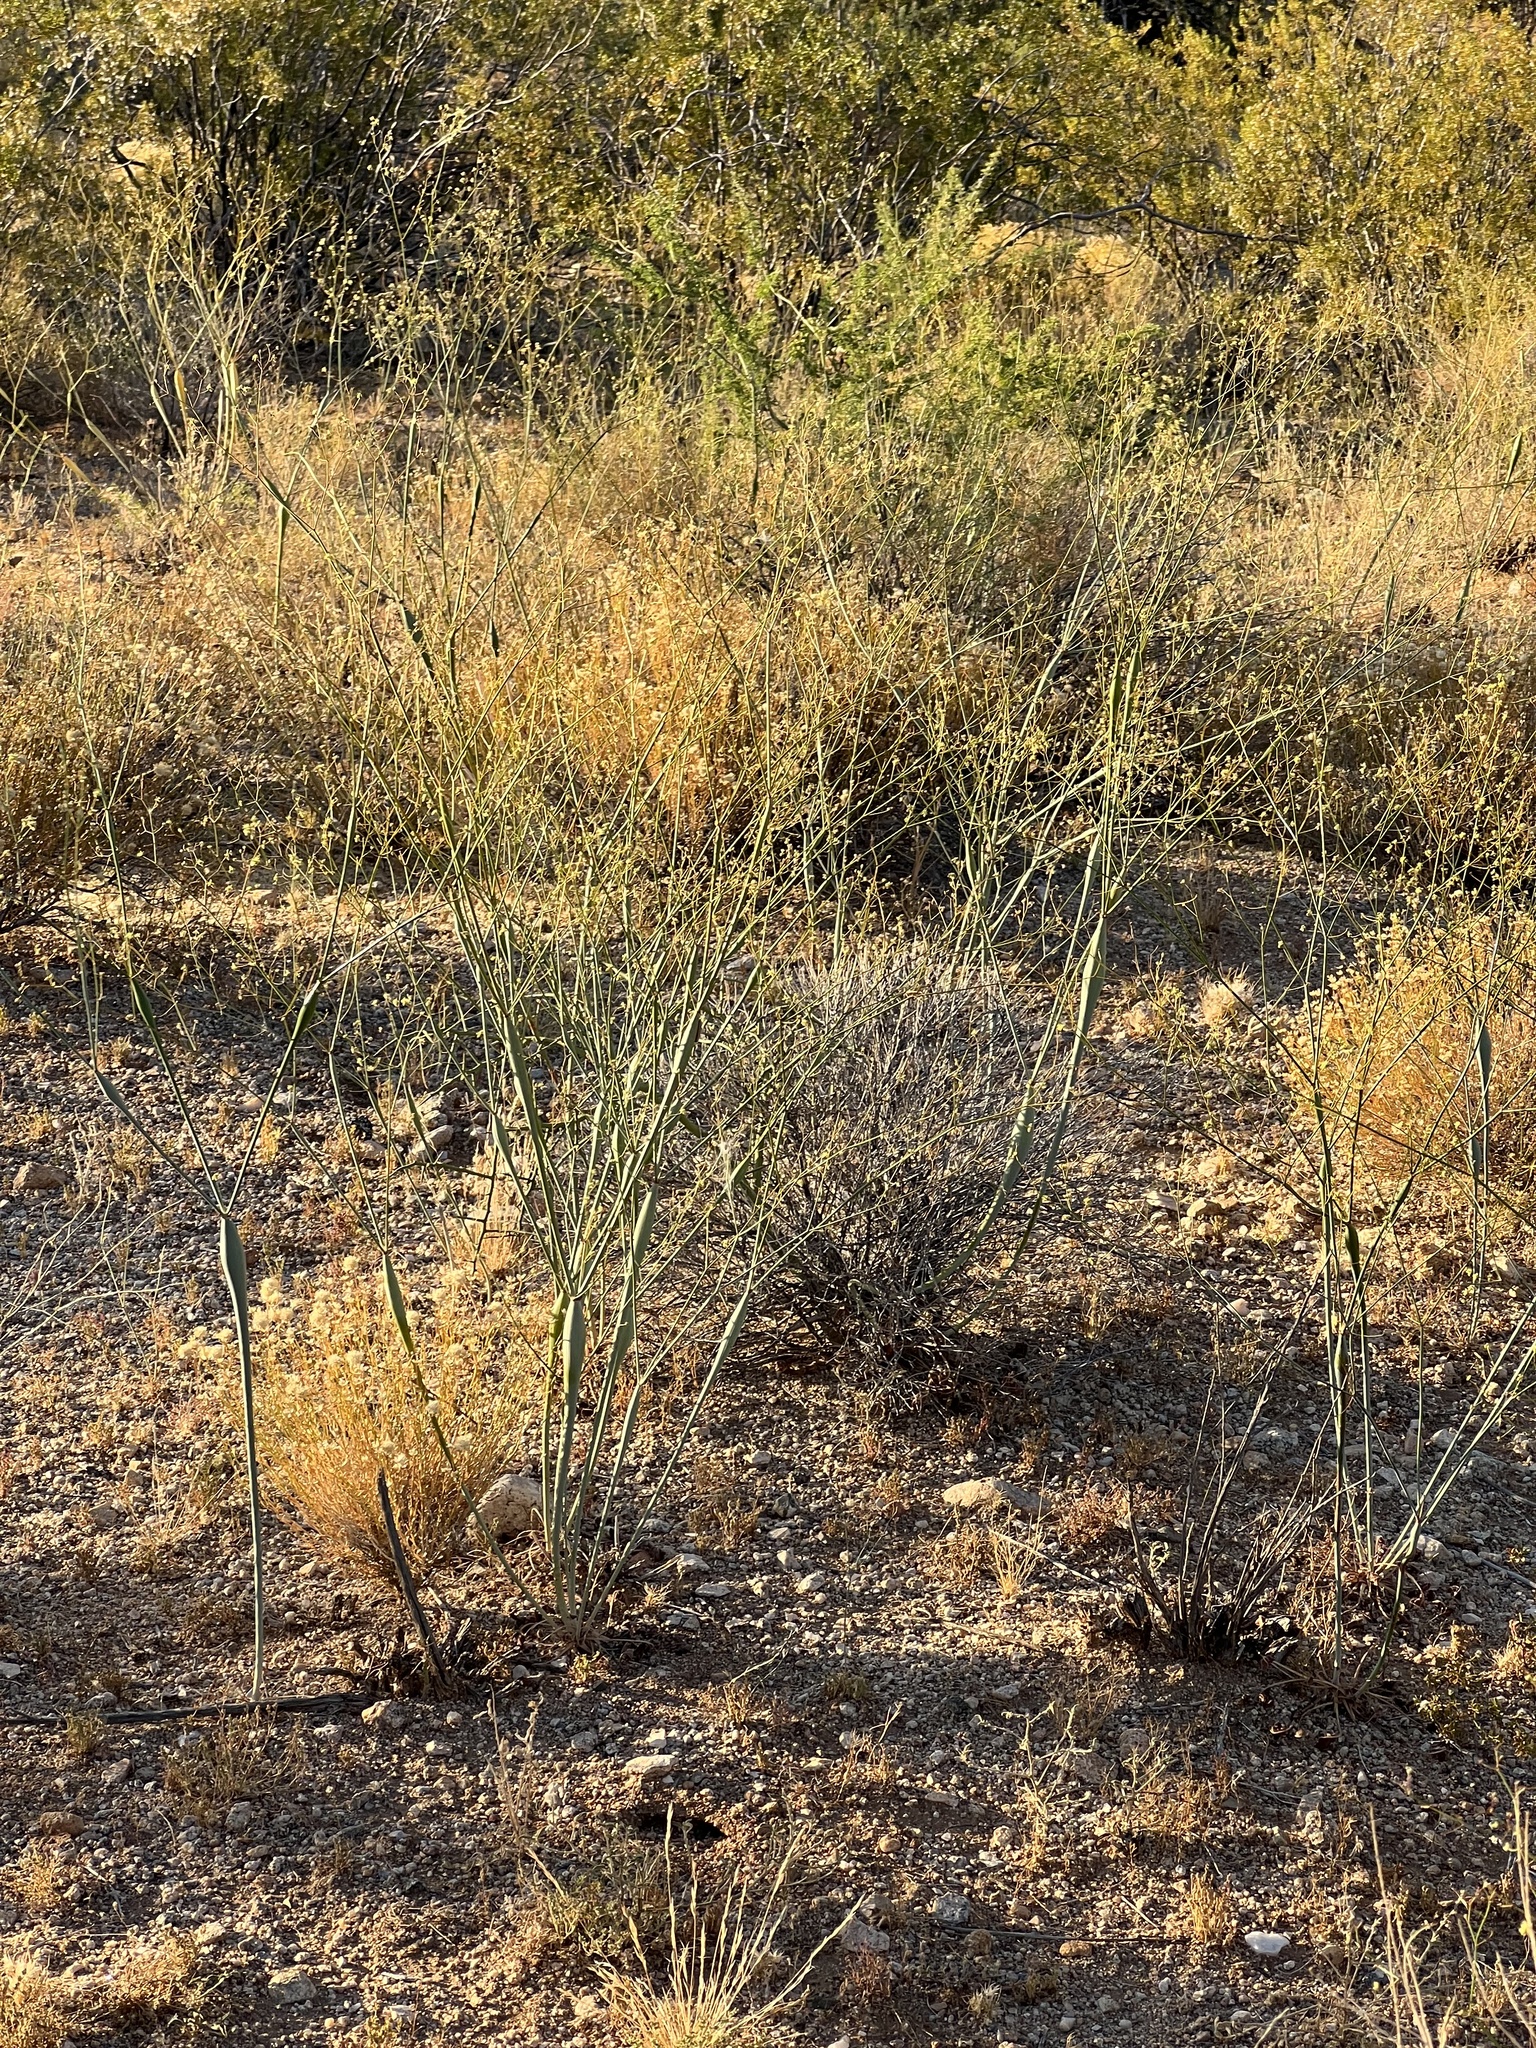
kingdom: Plantae
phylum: Tracheophyta
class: Magnoliopsida
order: Caryophyllales
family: Polygonaceae
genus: Eriogonum
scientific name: Eriogonum inflatum
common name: Desert trumpet
